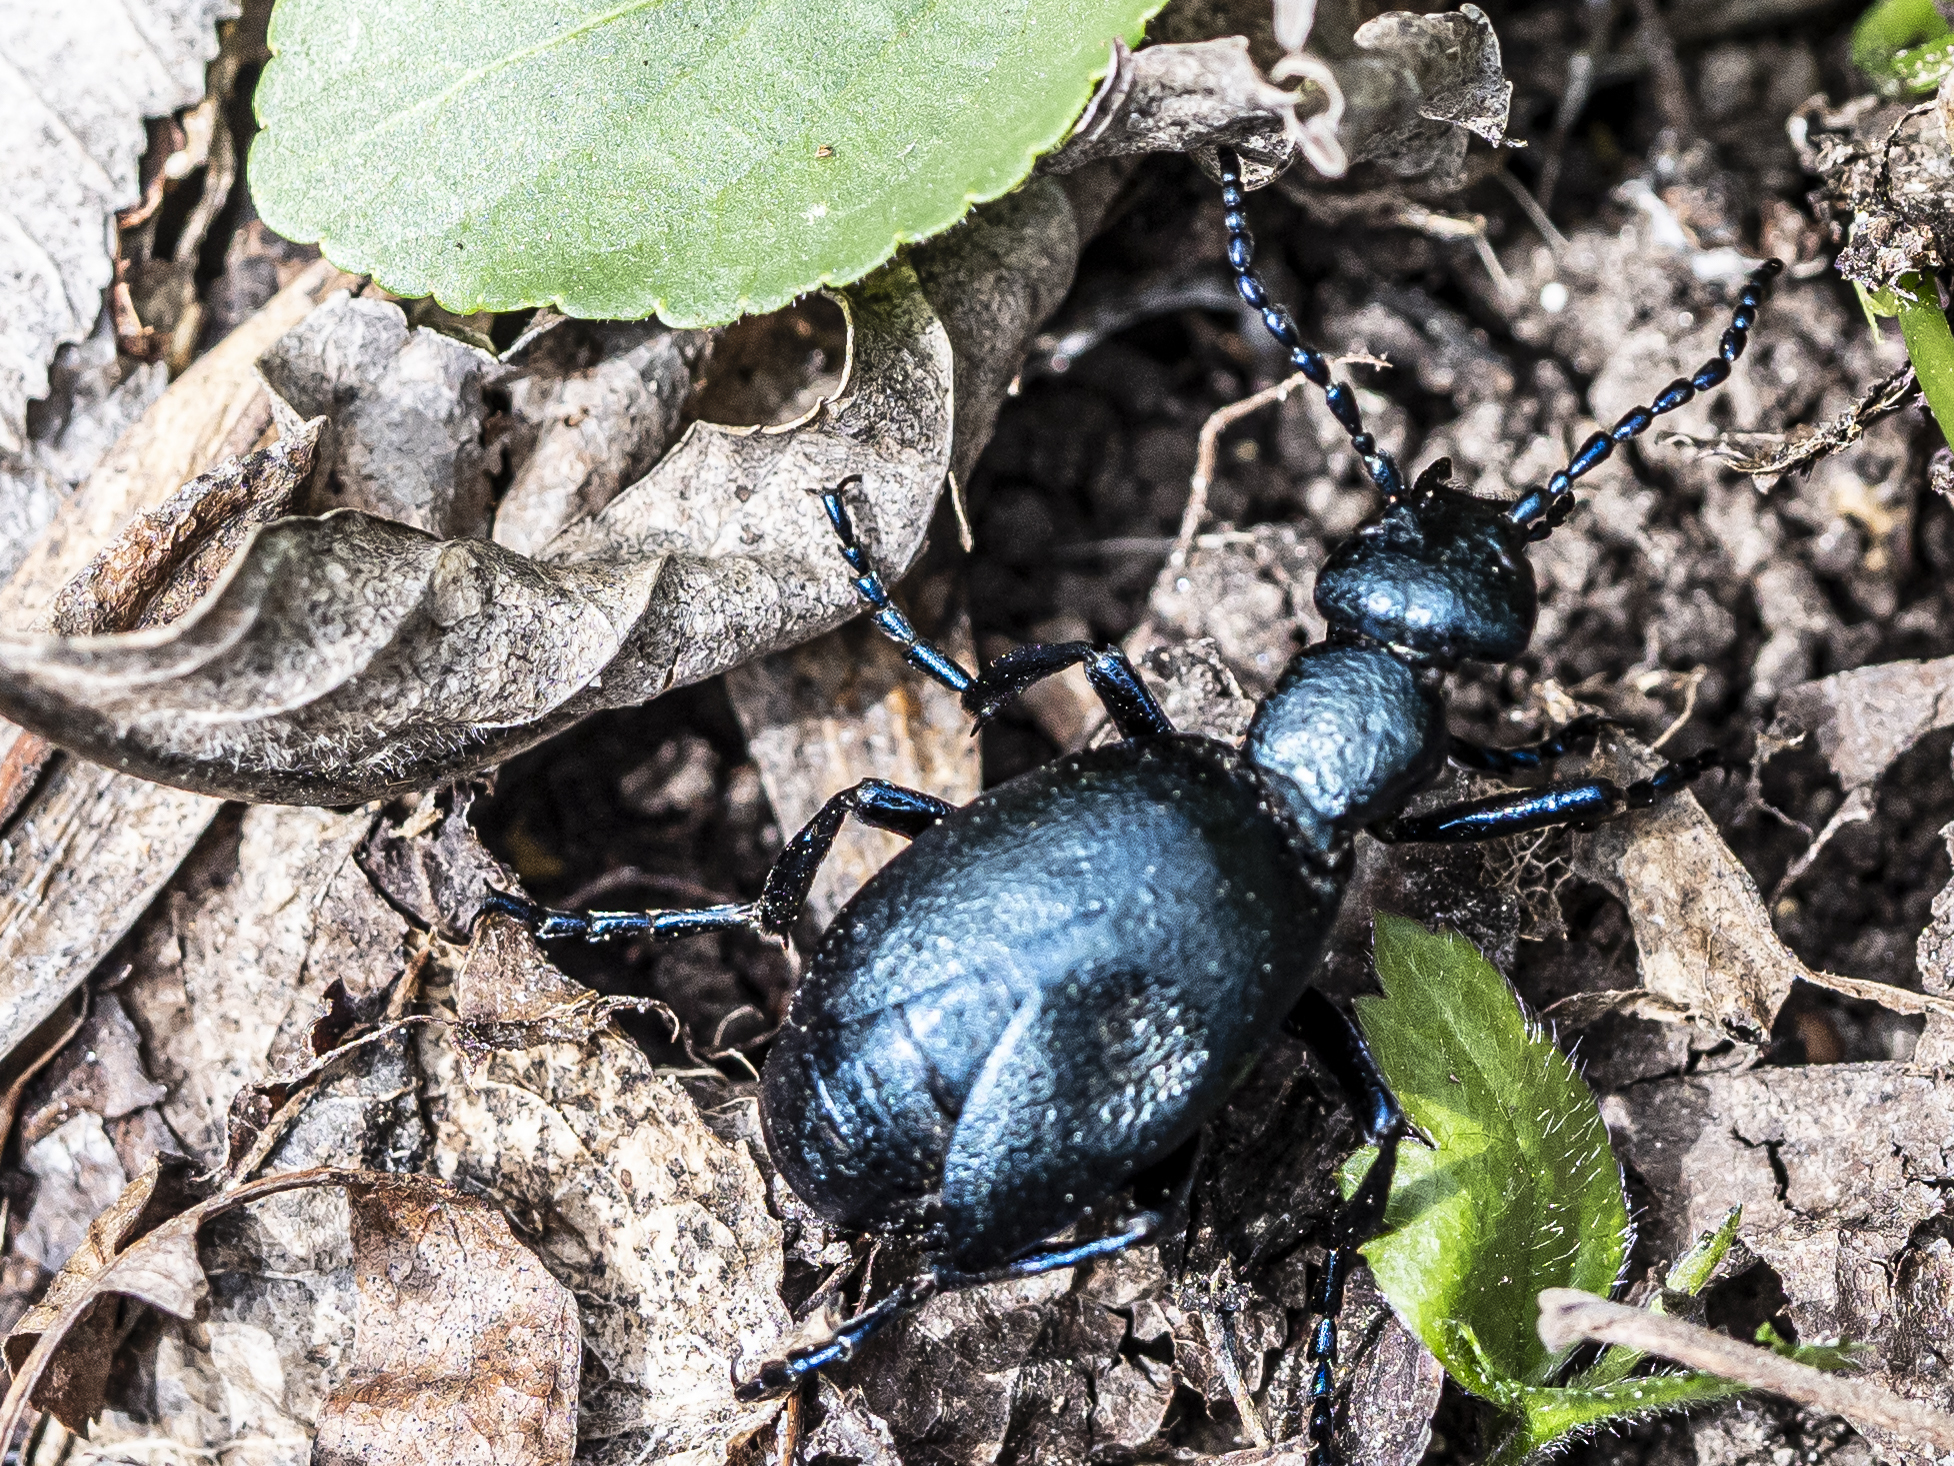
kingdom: Animalia
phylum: Arthropoda
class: Insecta
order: Coleoptera
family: Meloidae
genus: Meloe
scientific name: Meloe violaceus
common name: Violet oil-beetle
